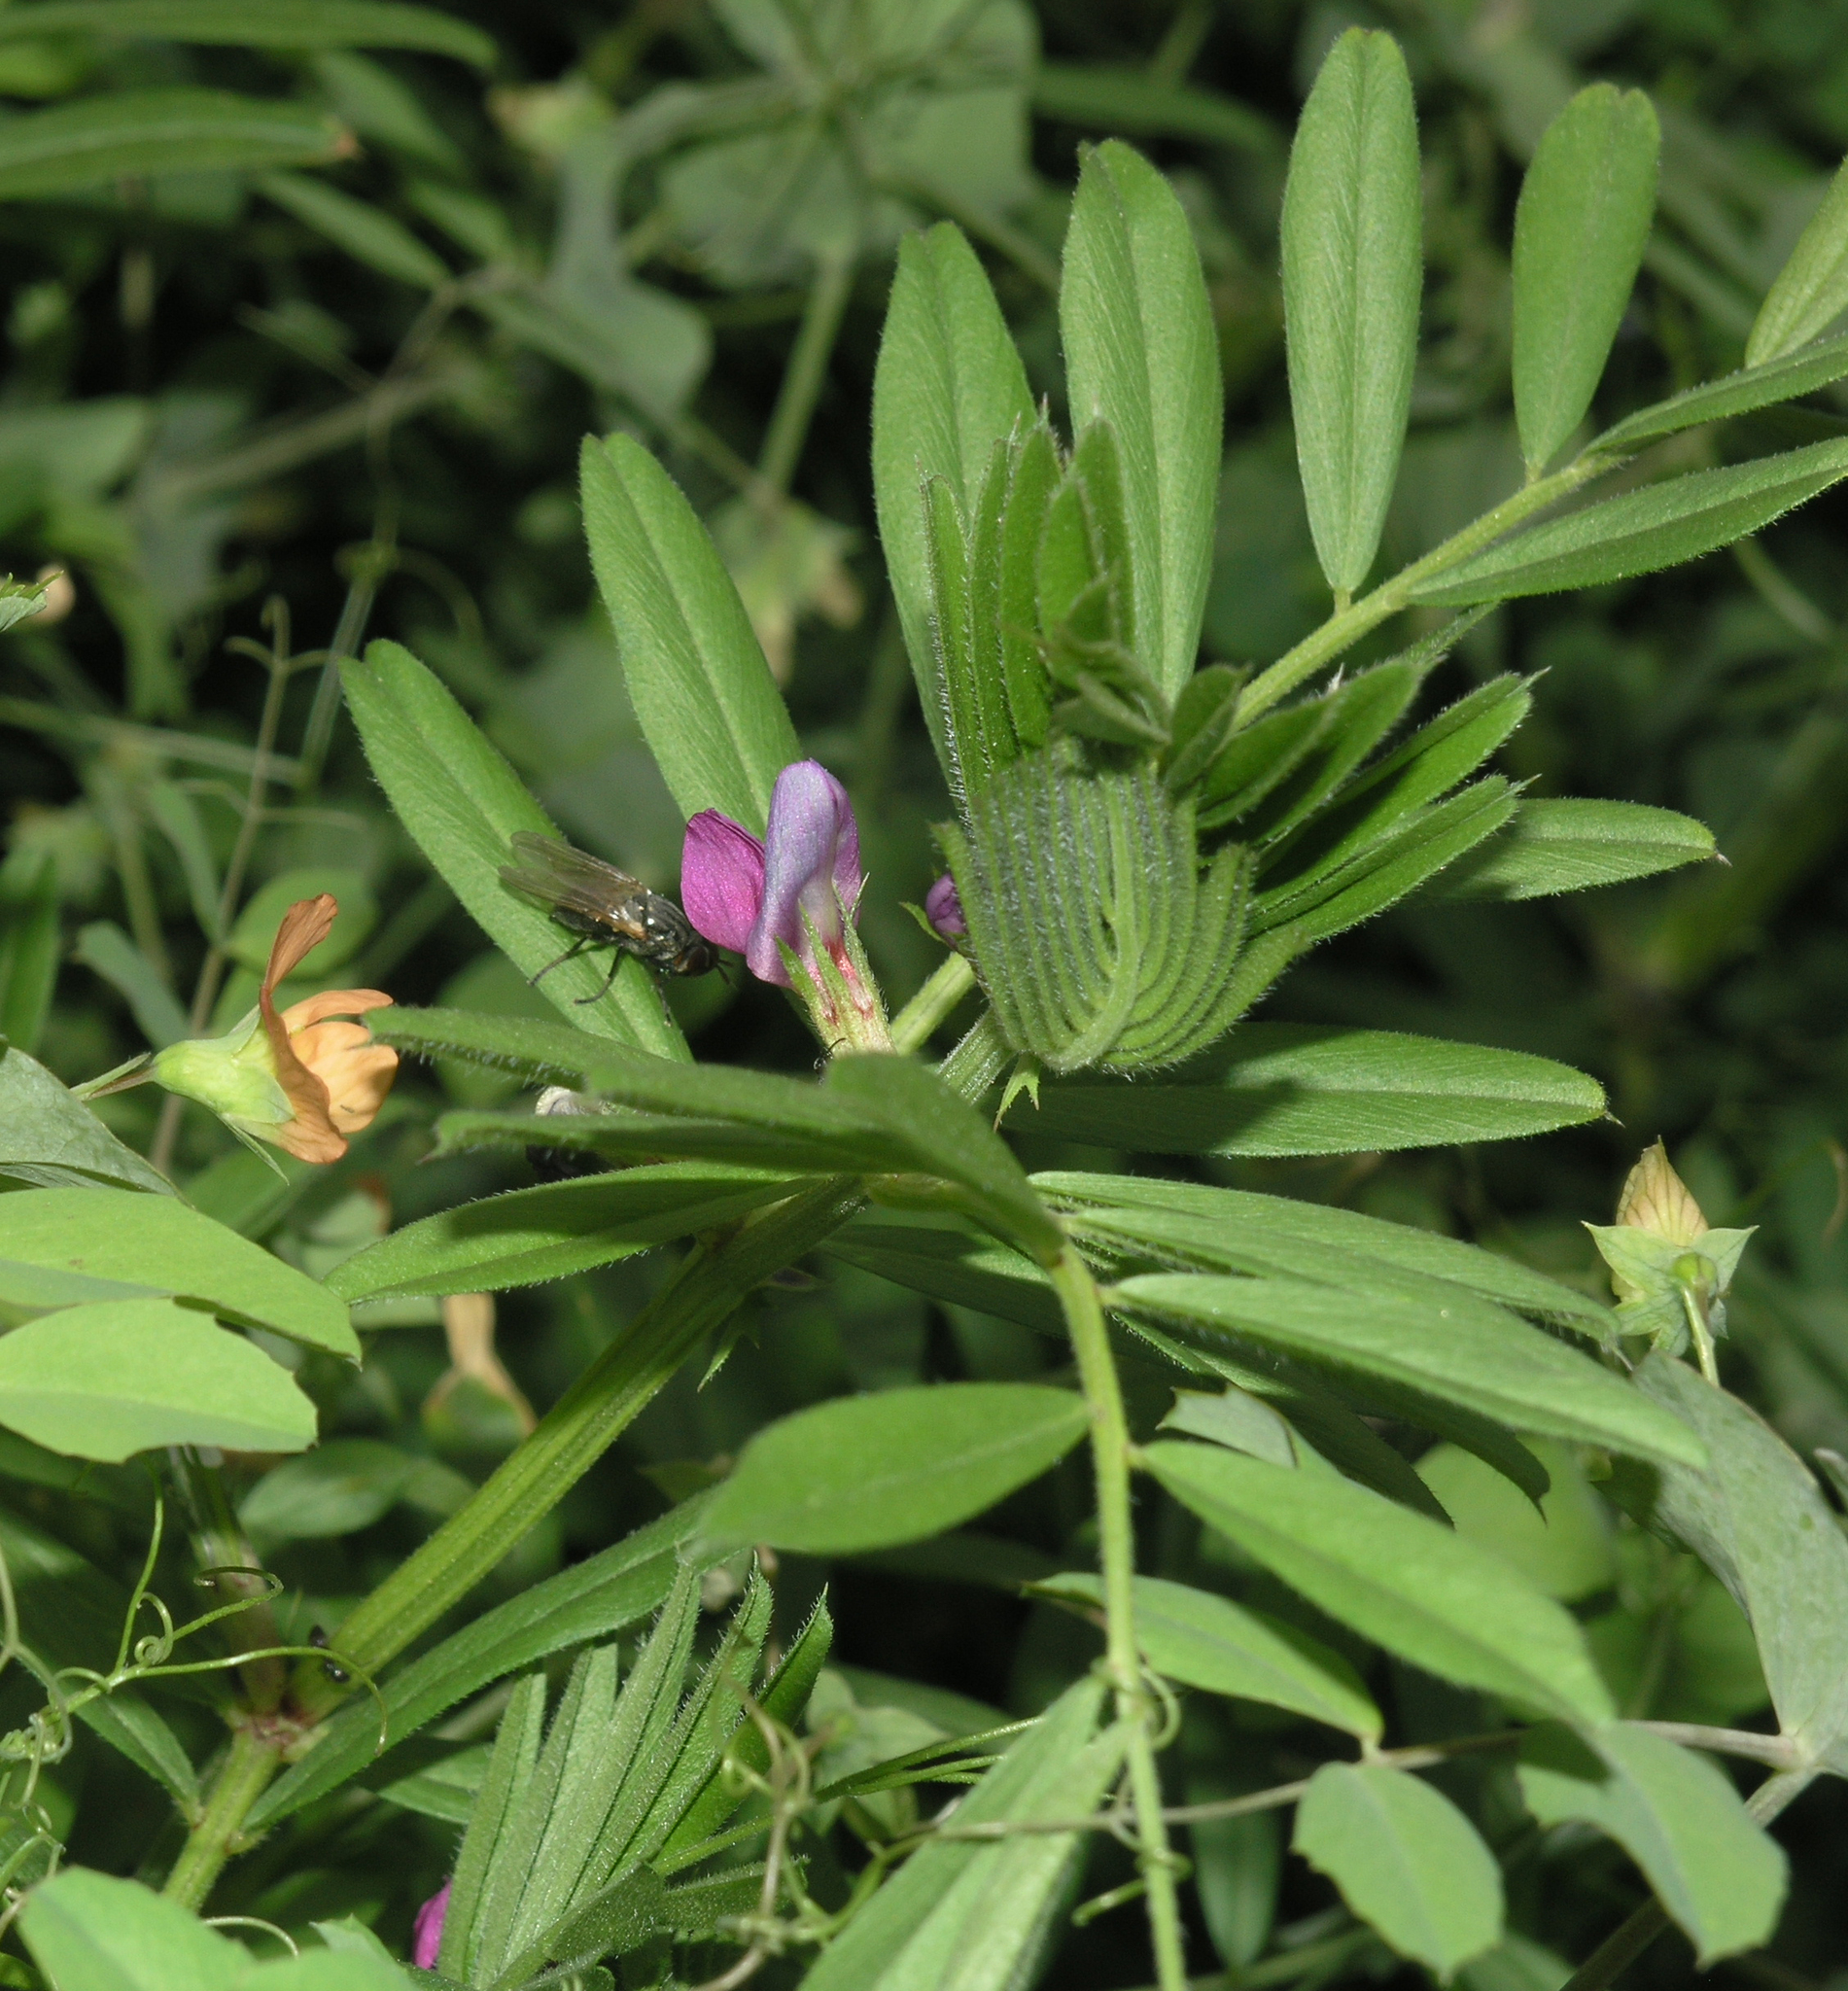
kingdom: Plantae
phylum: Tracheophyta
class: Magnoliopsida
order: Fabales
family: Fabaceae
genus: Vicia
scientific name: Vicia sativa
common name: Garden vetch
